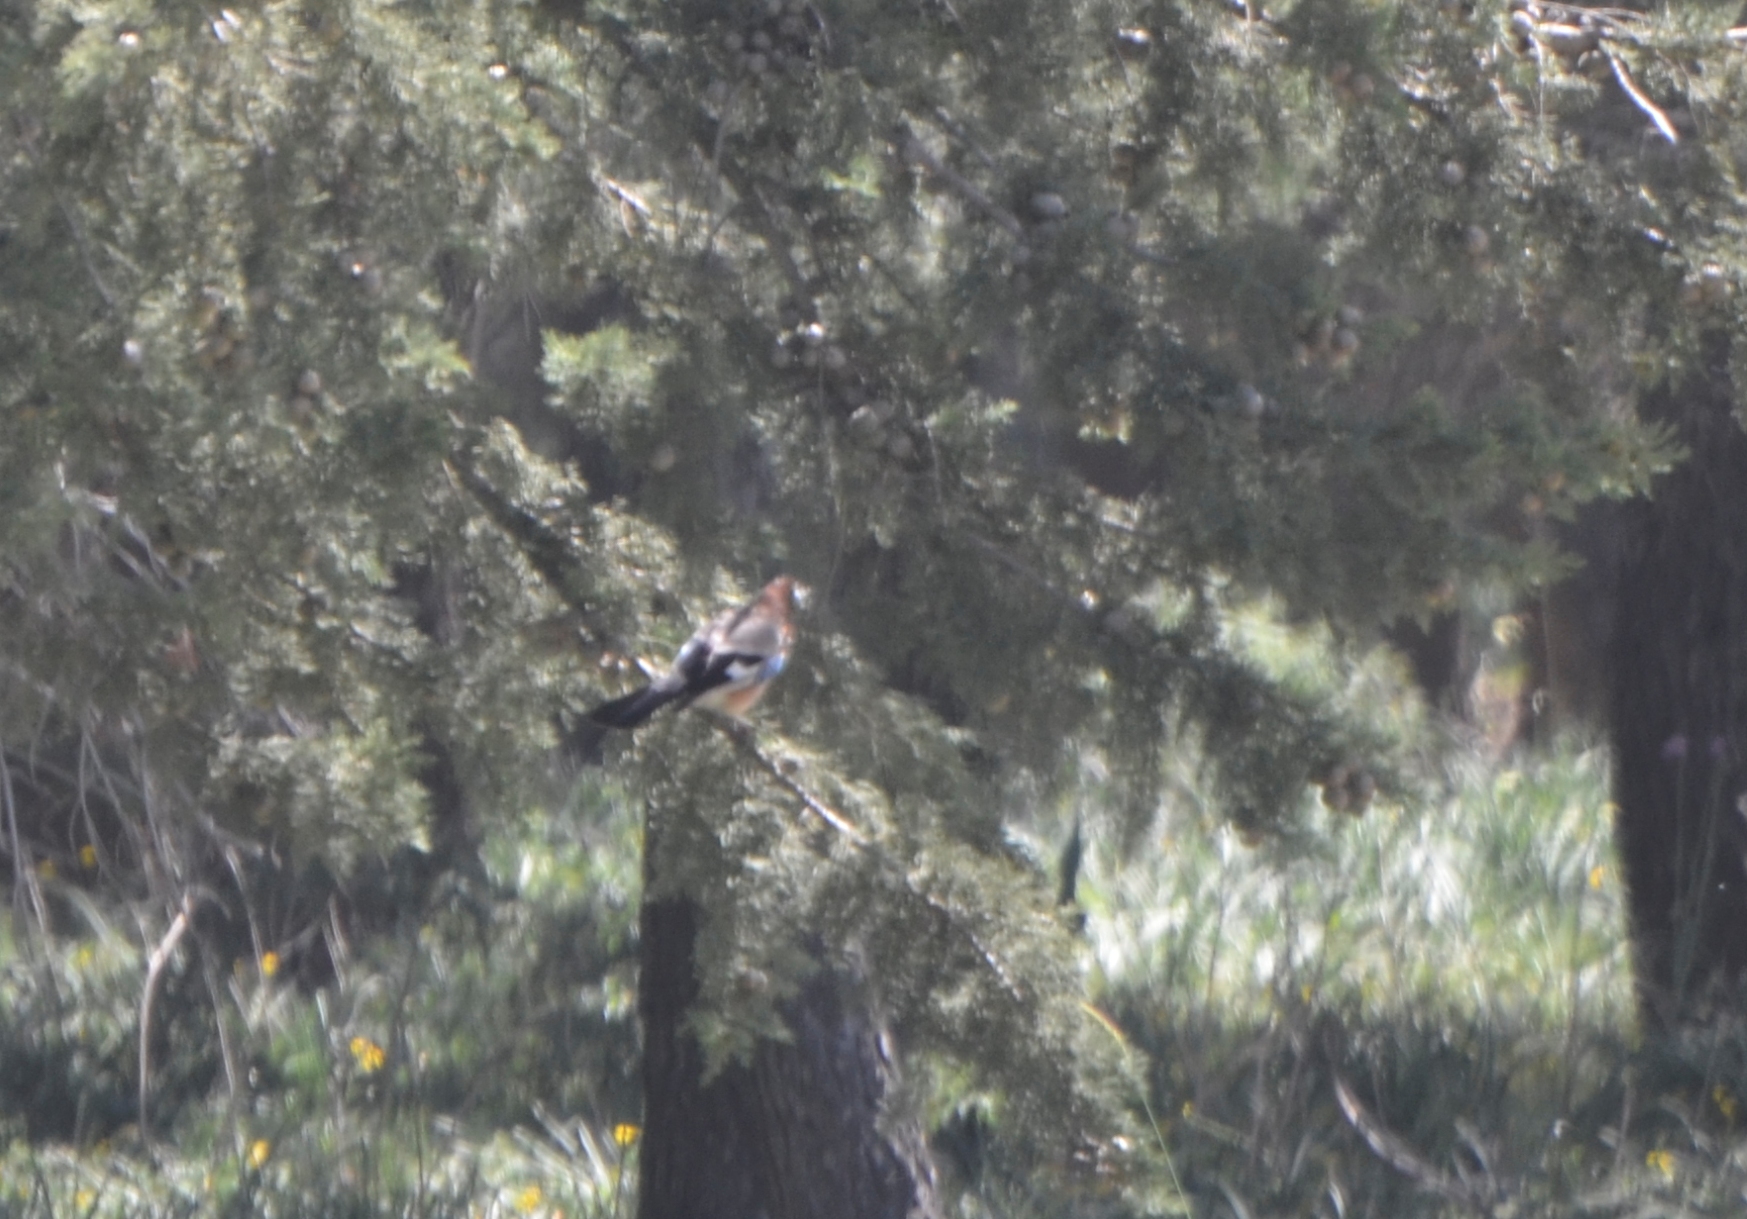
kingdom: Animalia
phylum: Chordata
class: Aves
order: Passeriformes
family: Corvidae
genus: Garrulus
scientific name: Garrulus glandarius
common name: Eurasian jay
